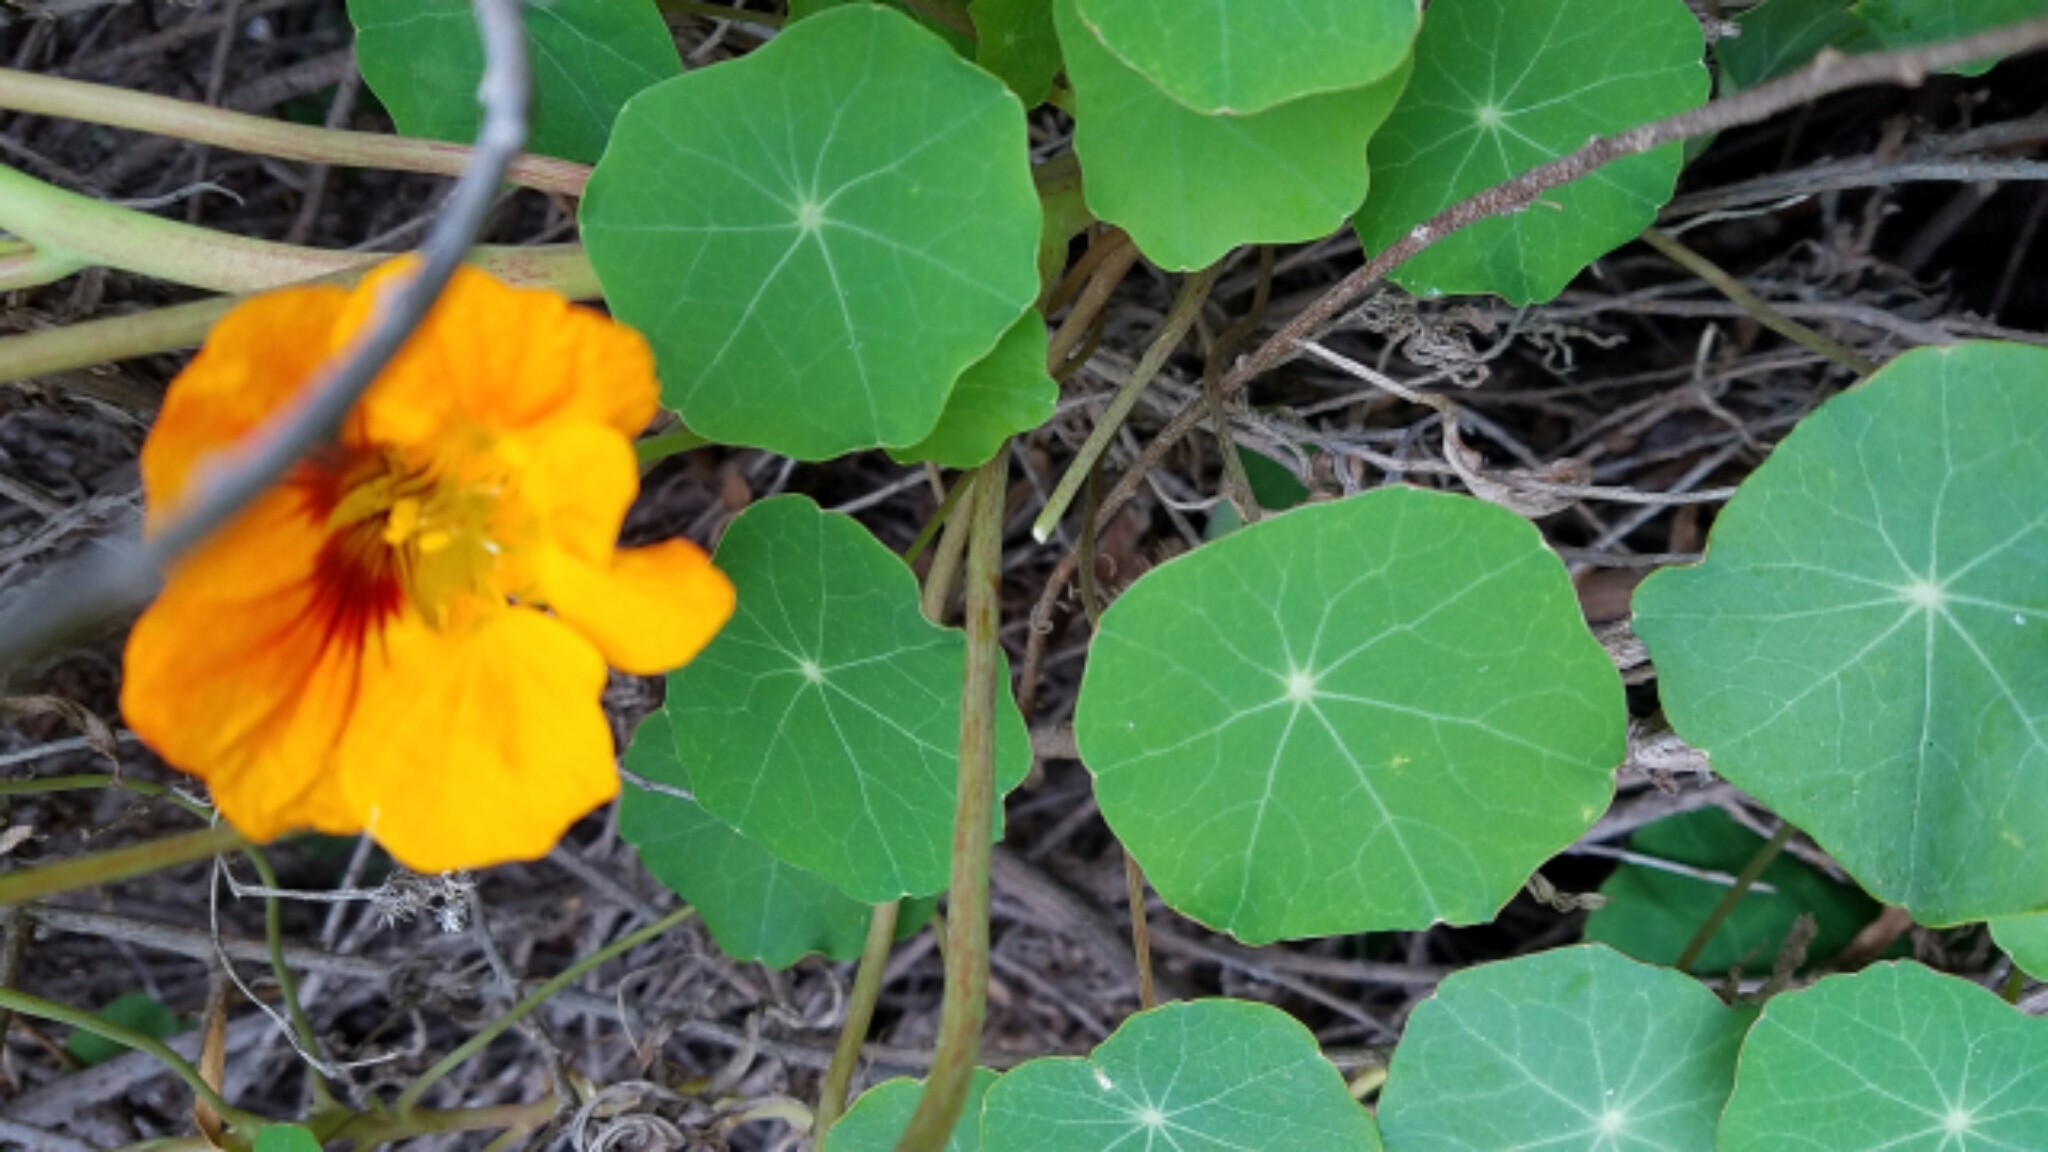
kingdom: Plantae
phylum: Tracheophyta
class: Magnoliopsida
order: Brassicales
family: Tropaeolaceae
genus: Tropaeolum
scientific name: Tropaeolum majus
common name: Nasturtium
